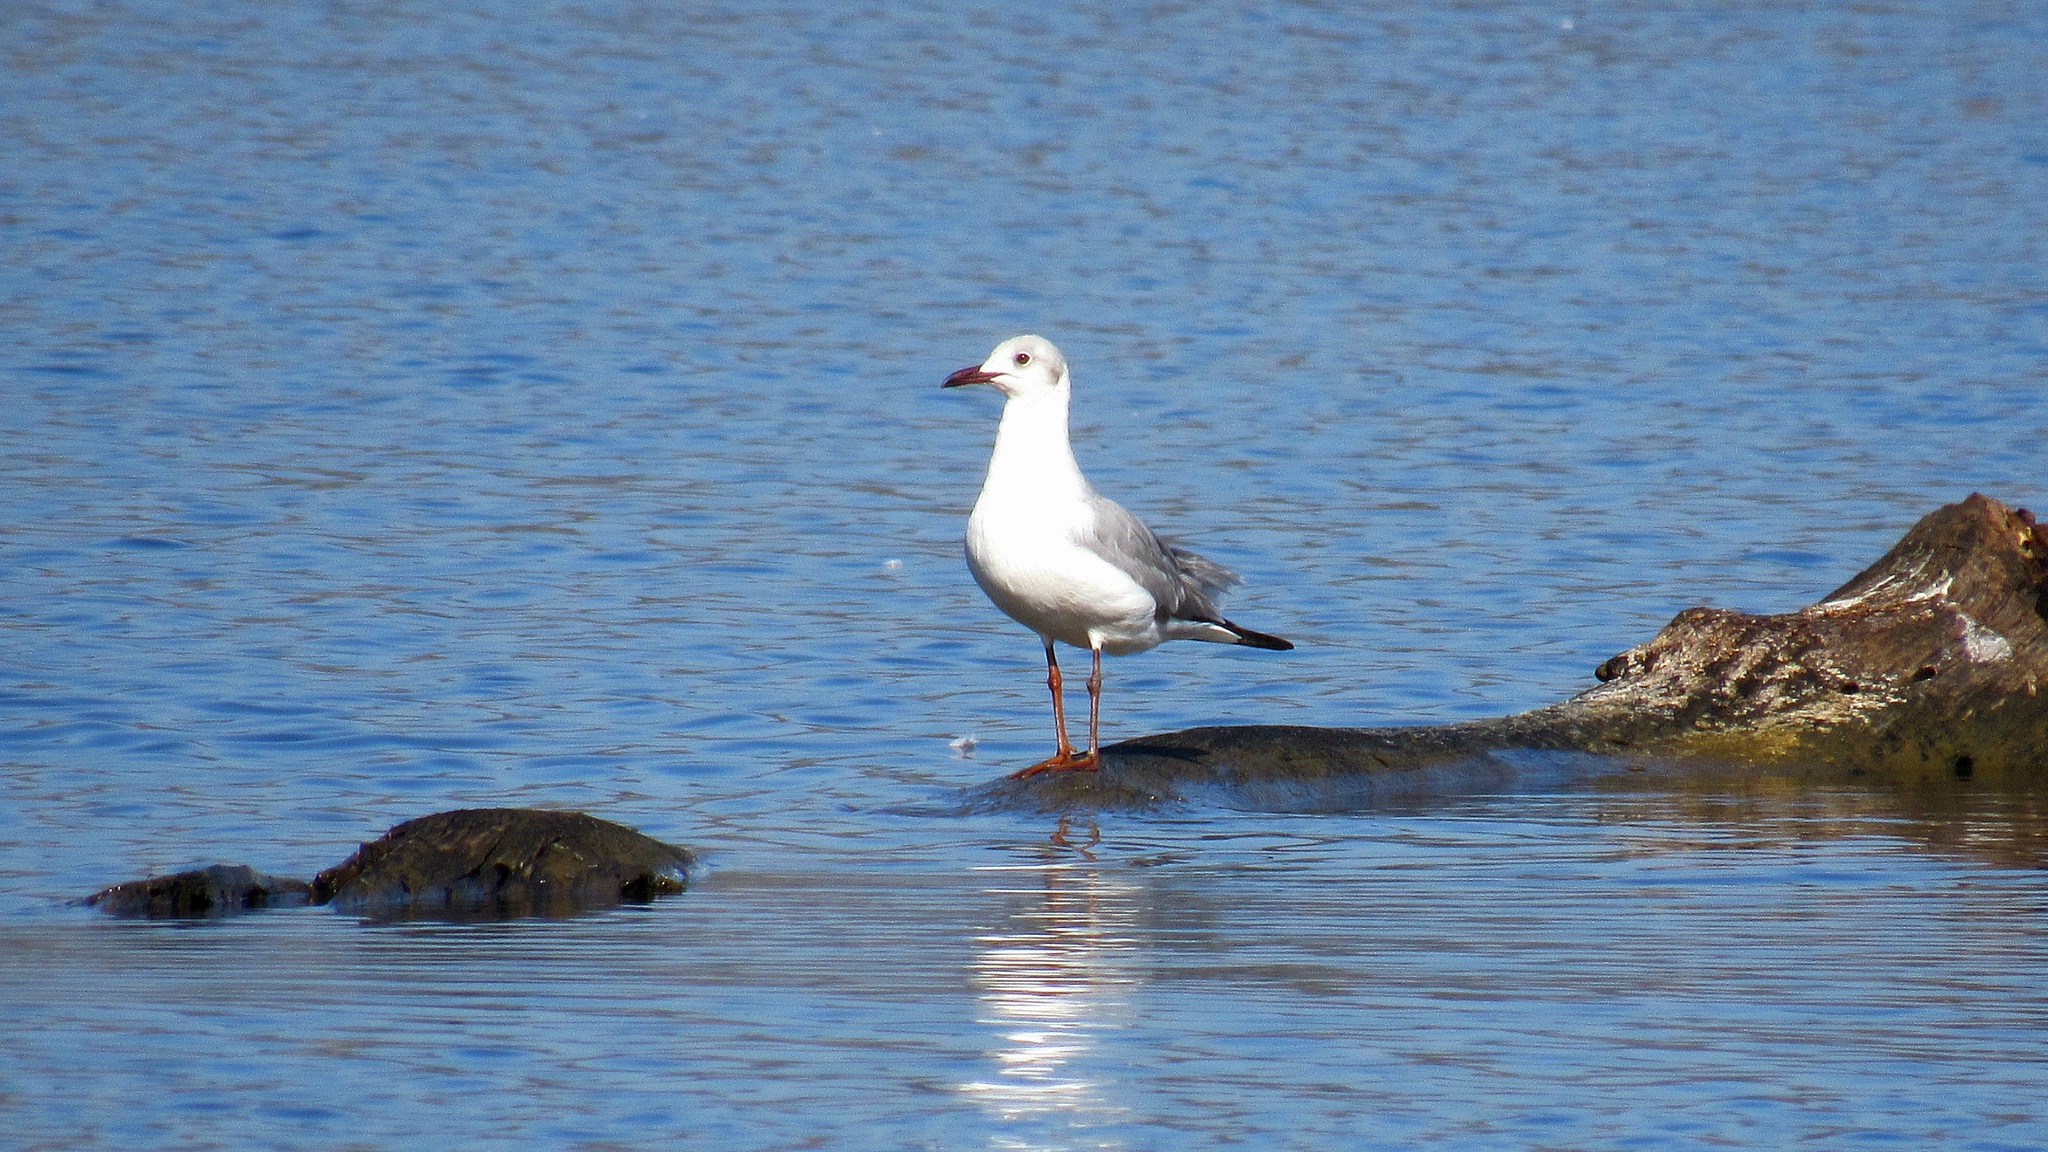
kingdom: Animalia
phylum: Chordata
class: Aves
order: Charadriiformes
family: Laridae
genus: Chroicocephalus
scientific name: Chroicocephalus cirrocephalus
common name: Grey-headed gull
